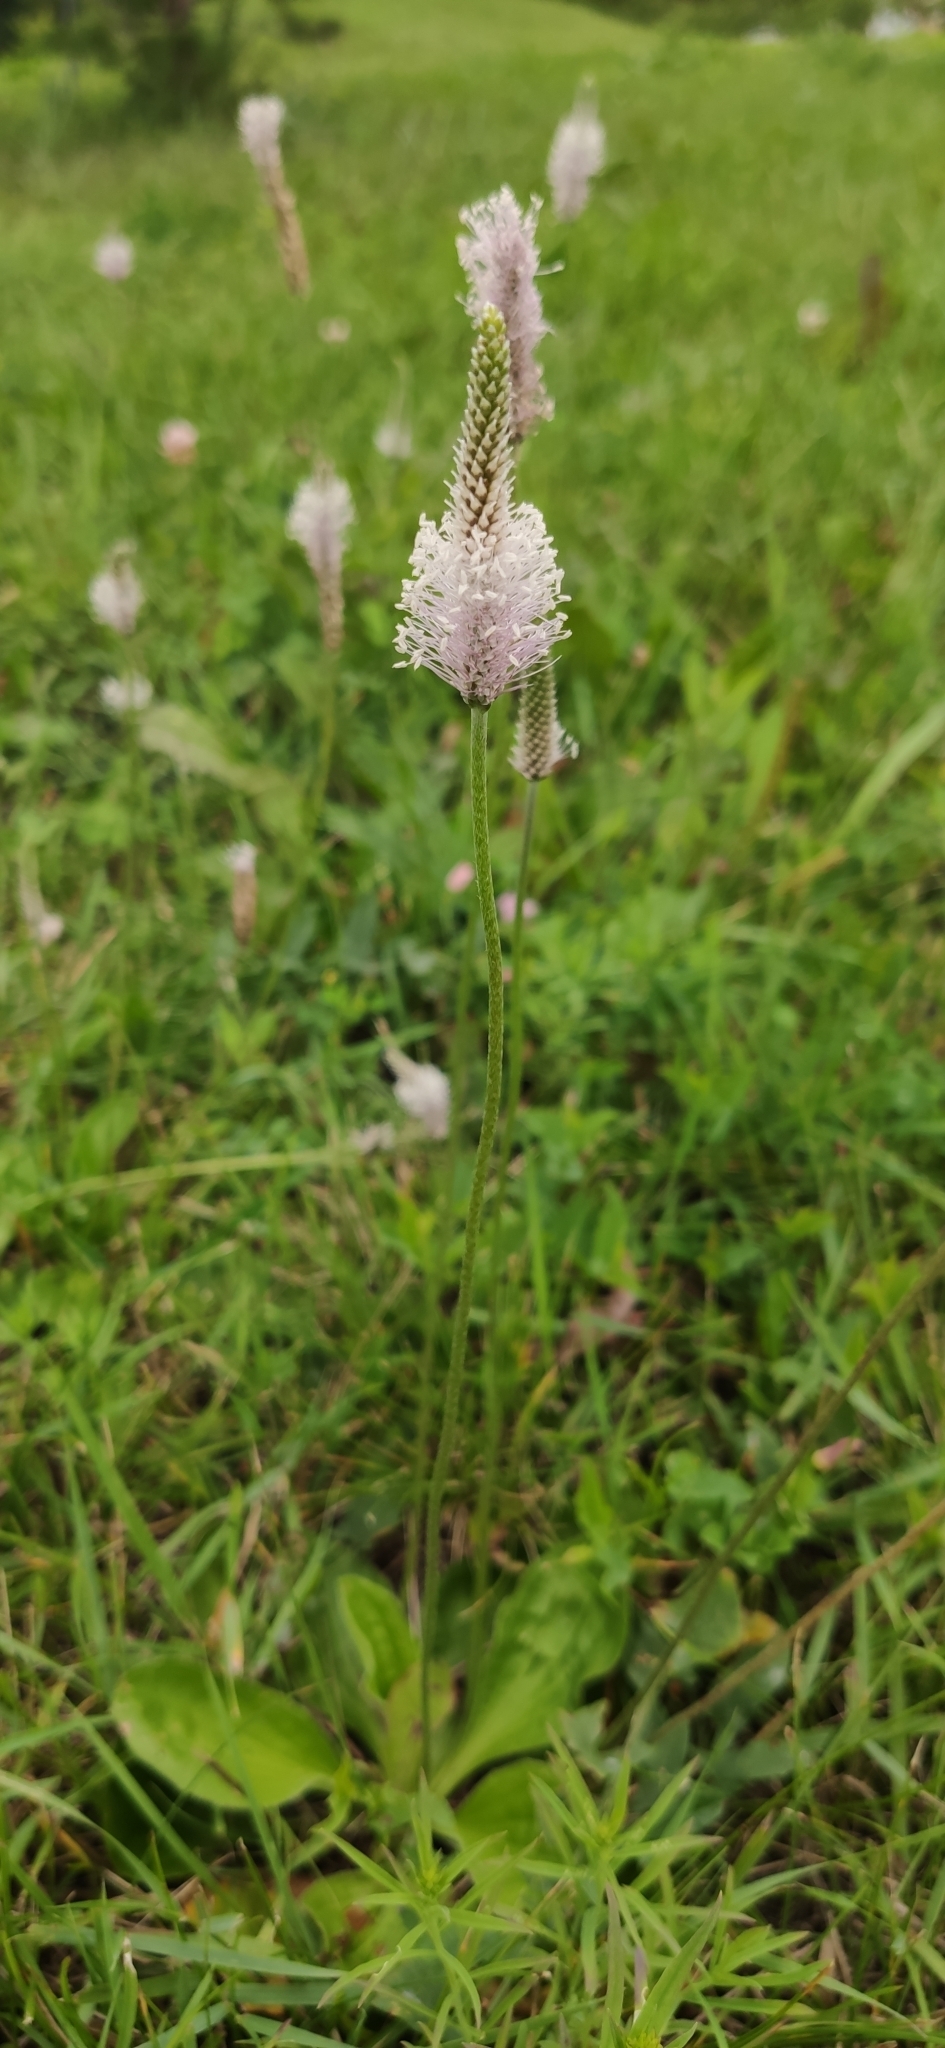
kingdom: Plantae
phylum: Tracheophyta
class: Magnoliopsida
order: Lamiales
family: Plantaginaceae
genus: Plantago
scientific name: Plantago media
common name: Hoary plantain
